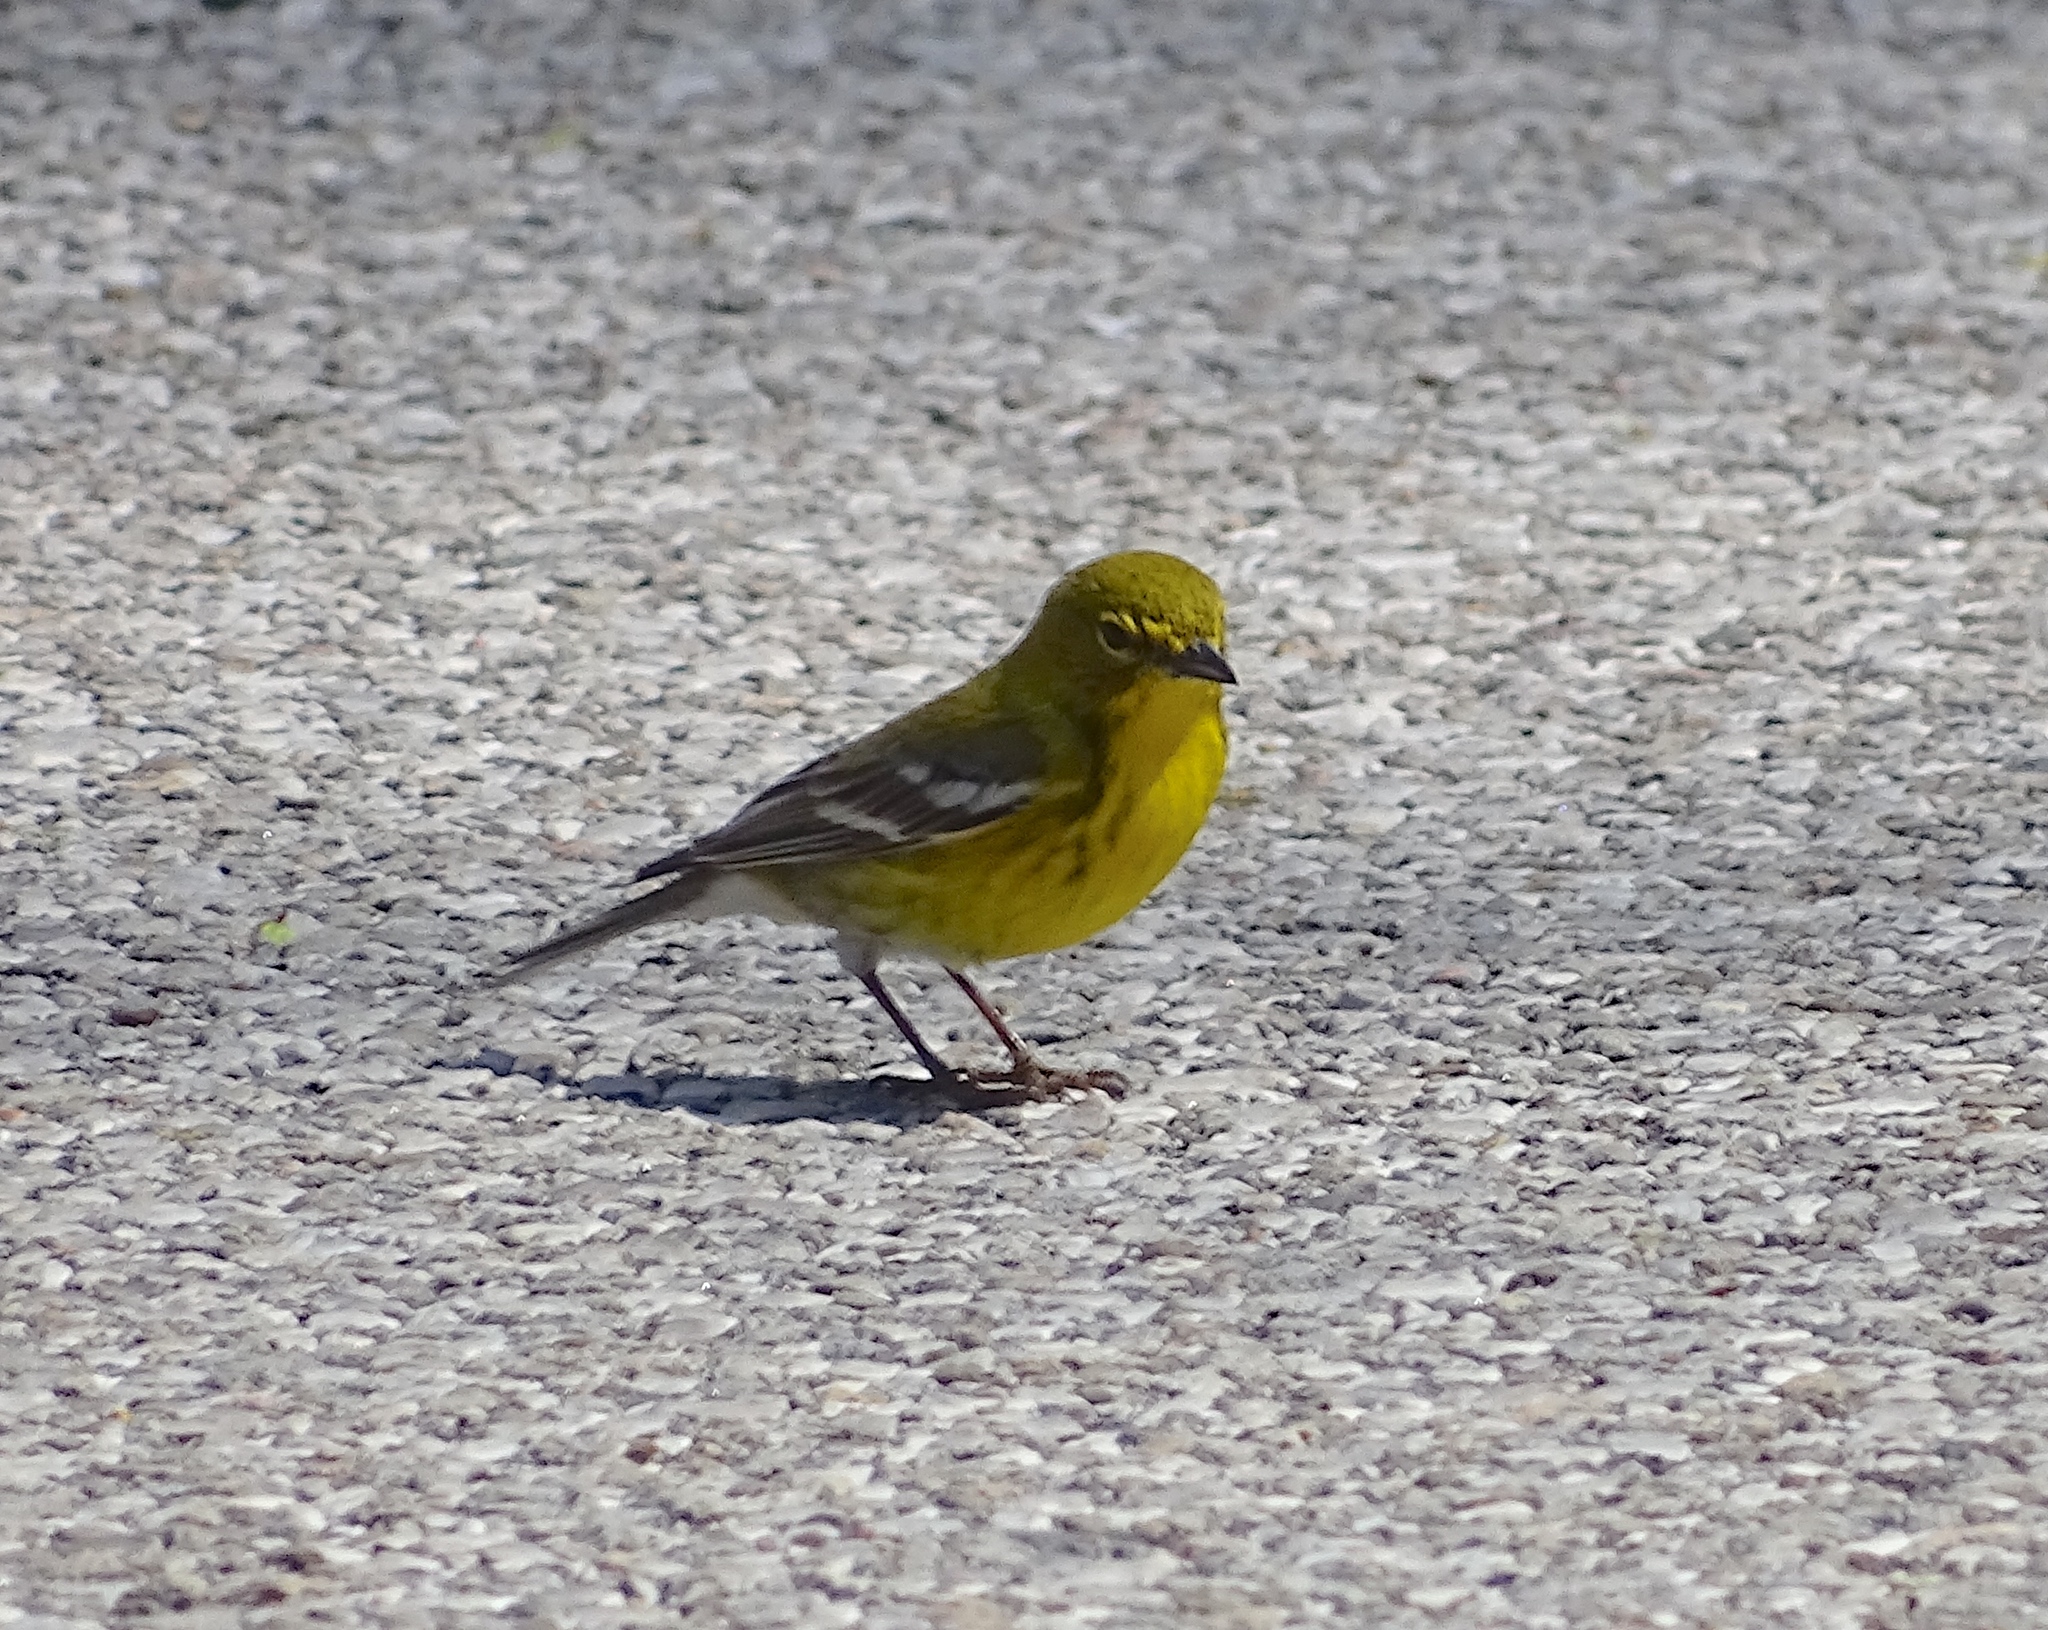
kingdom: Animalia
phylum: Chordata
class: Aves
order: Passeriformes
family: Parulidae
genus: Setophaga
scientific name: Setophaga pinus
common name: Pine warbler
